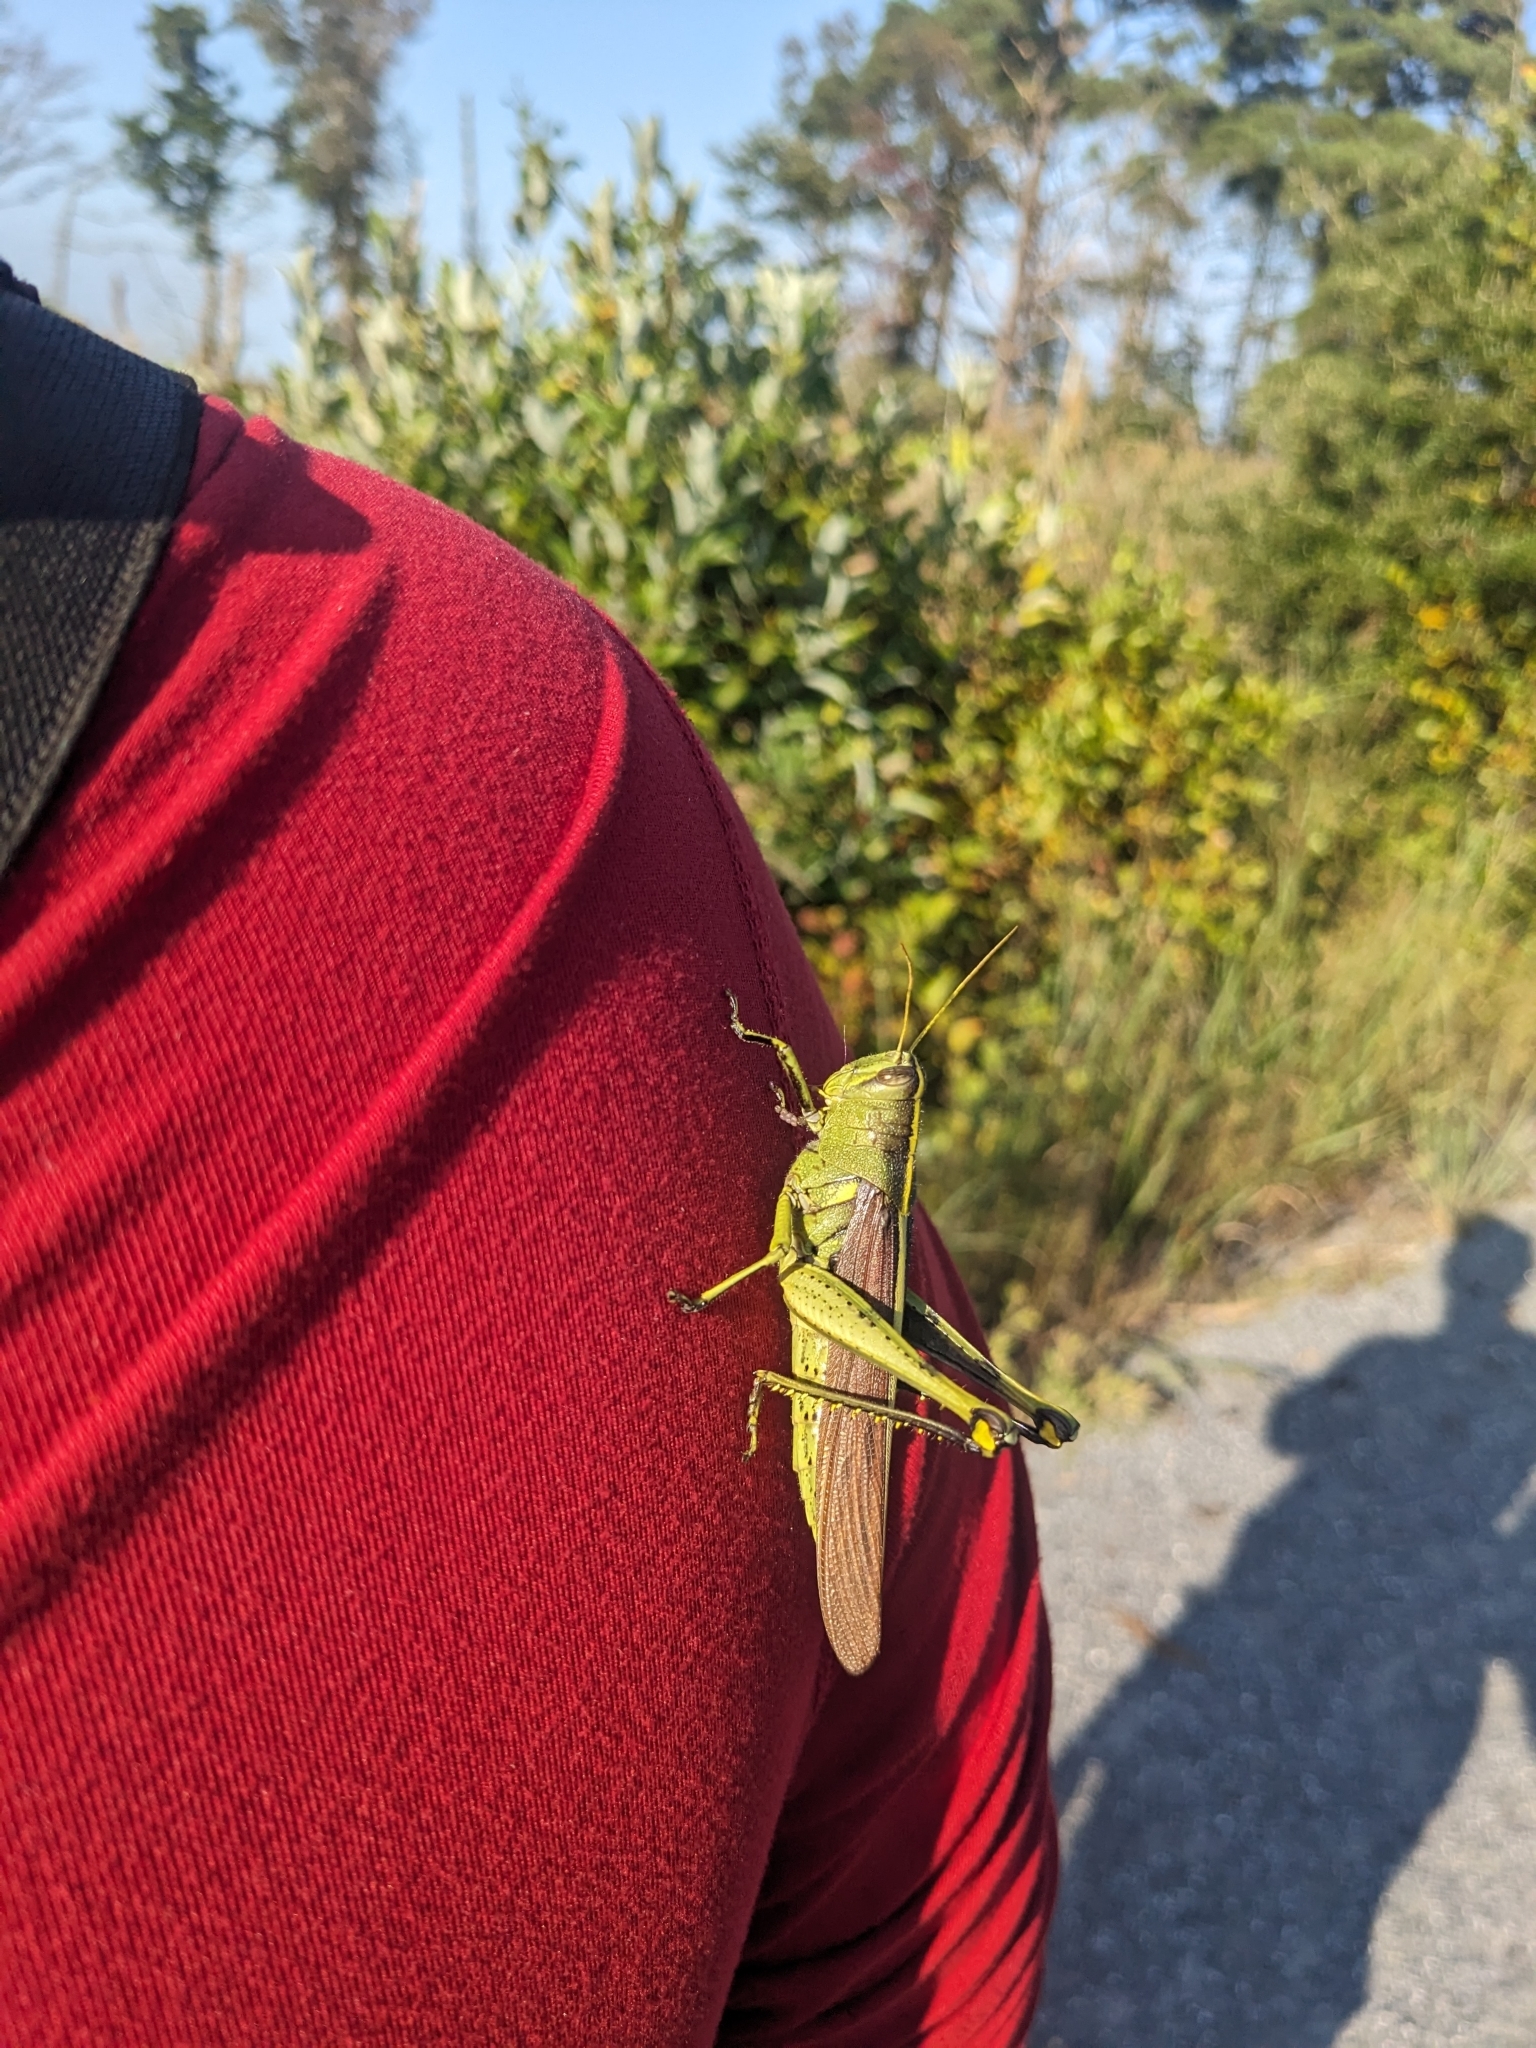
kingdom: Animalia
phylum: Arthropoda
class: Insecta
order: Orthoptera
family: Acrididae
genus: Schistocerca
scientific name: Schistocerca obscura
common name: Obscure bird grasshopper
